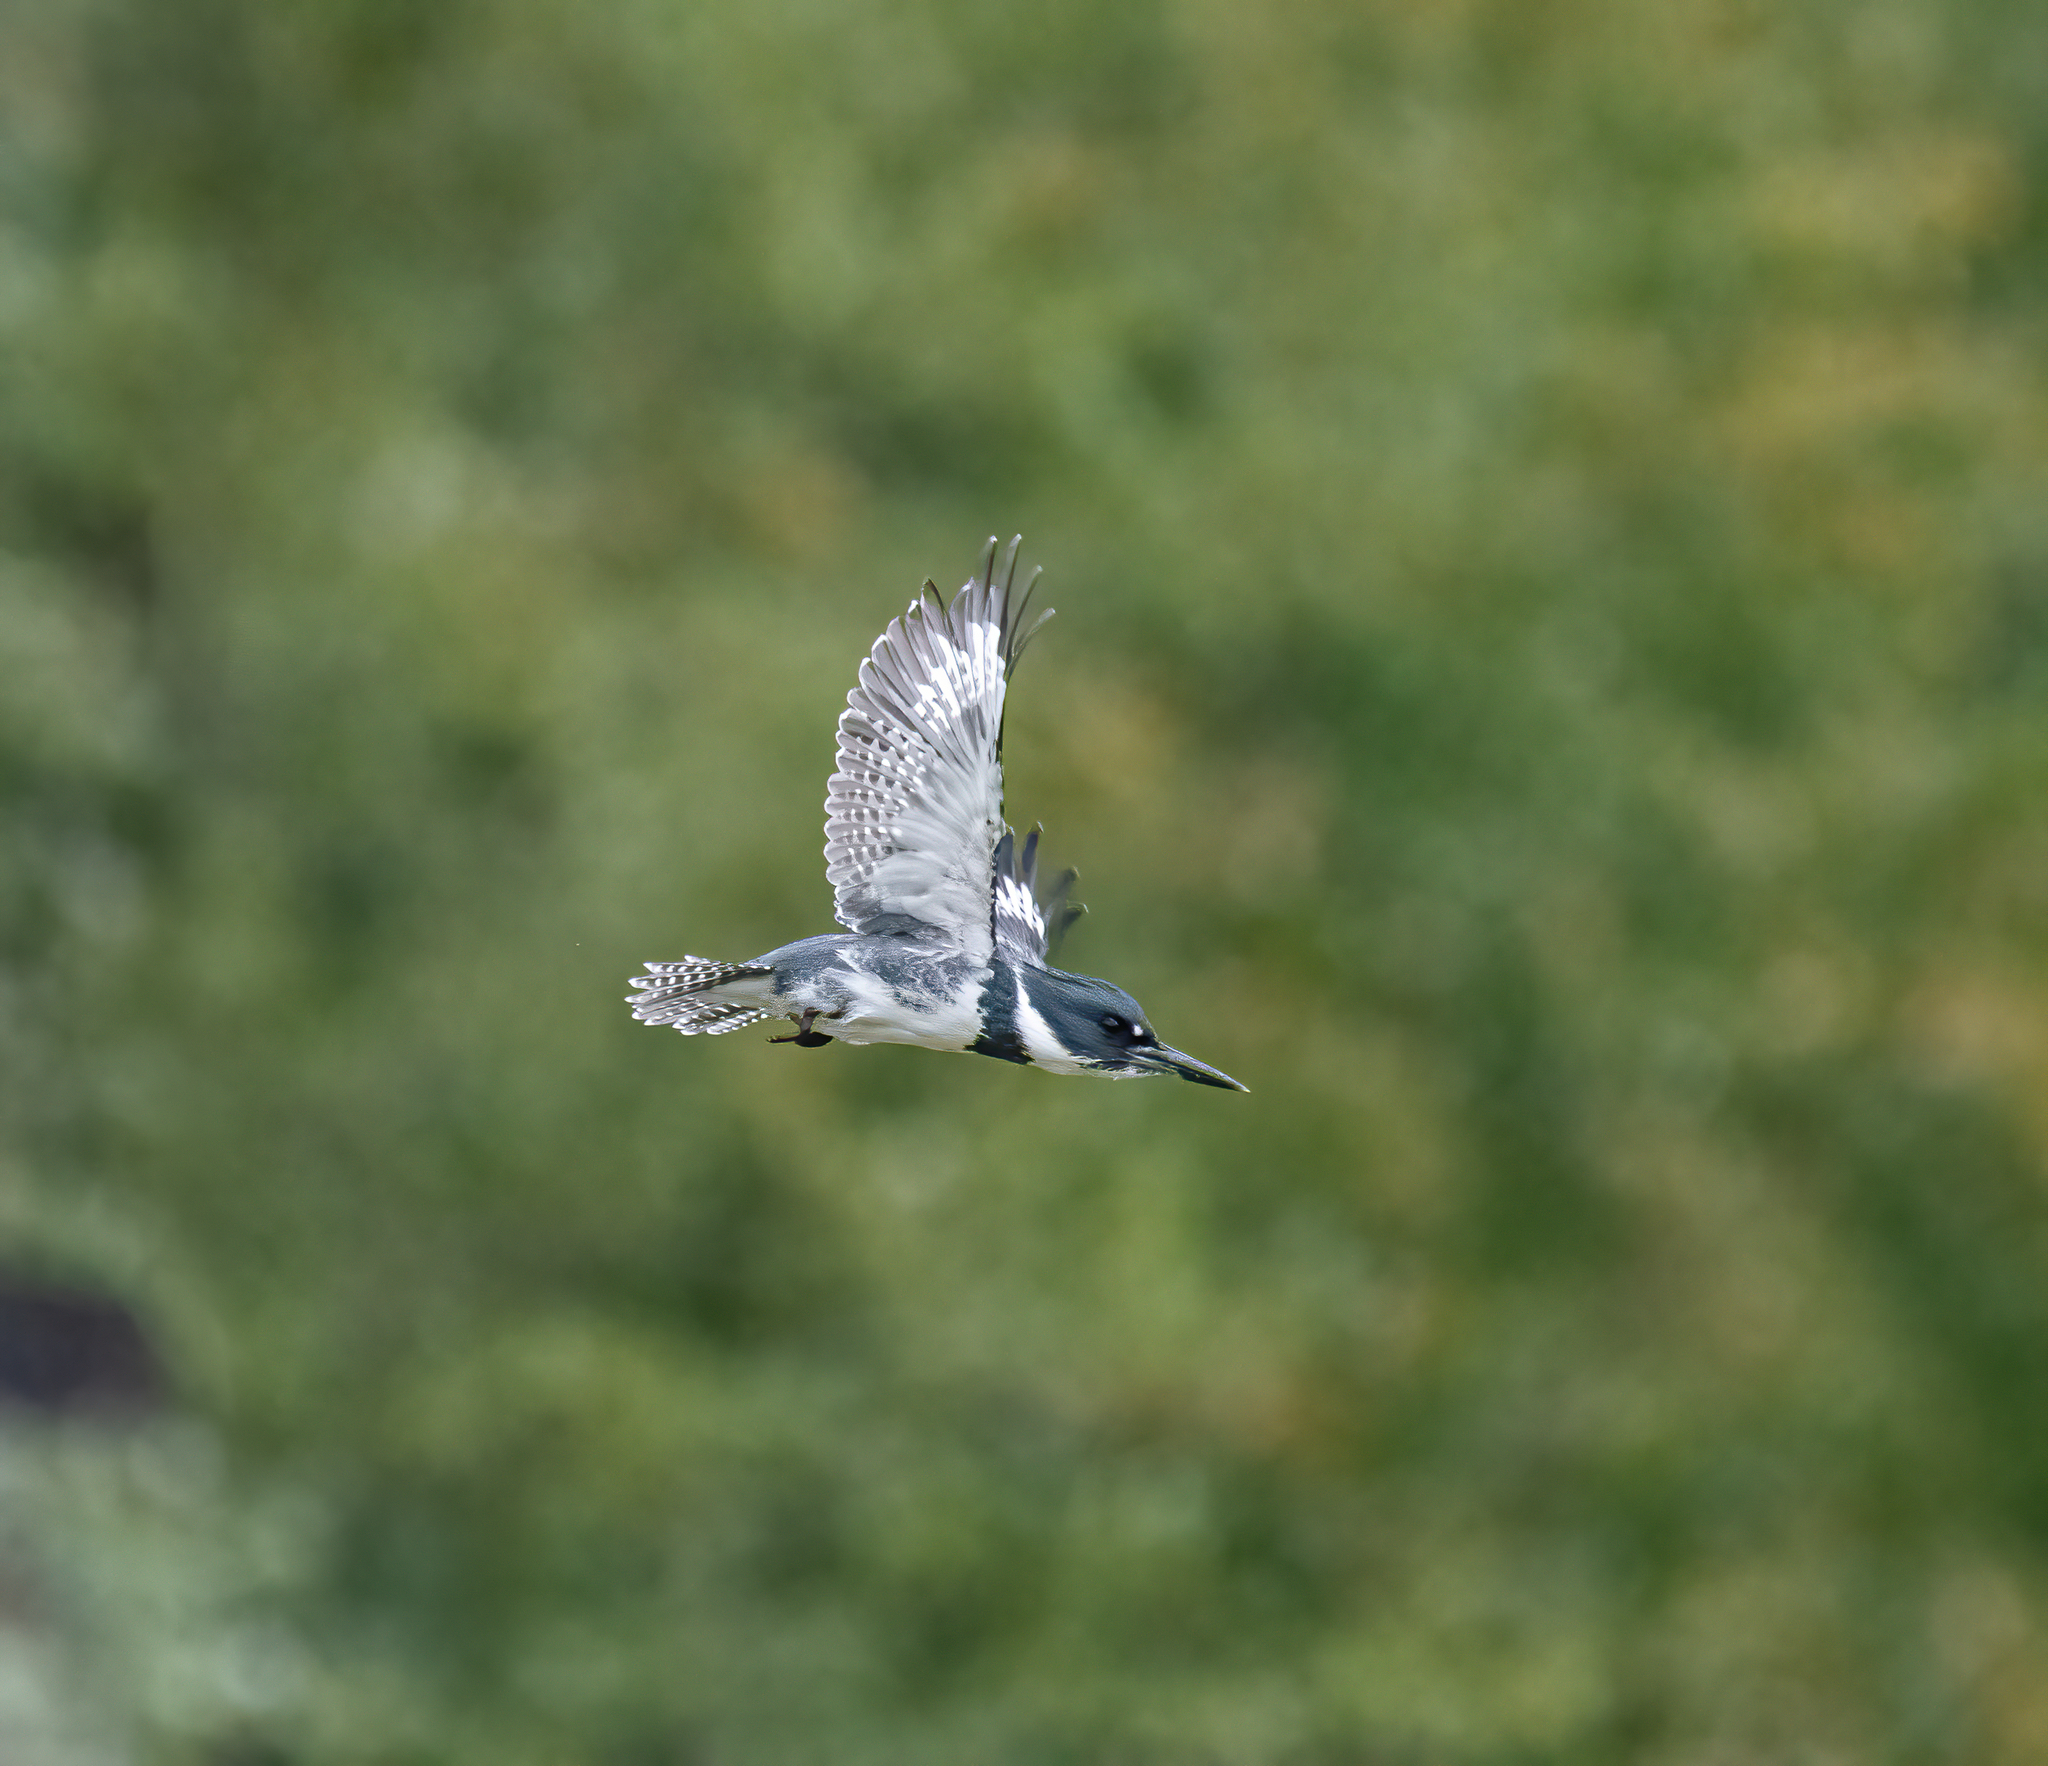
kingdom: Animalia
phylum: Chordata
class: Aves
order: Coraciiformes
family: Alcedinidae
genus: Megaceryle
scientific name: Megaceryle alcyon
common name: Belted kingfisher
